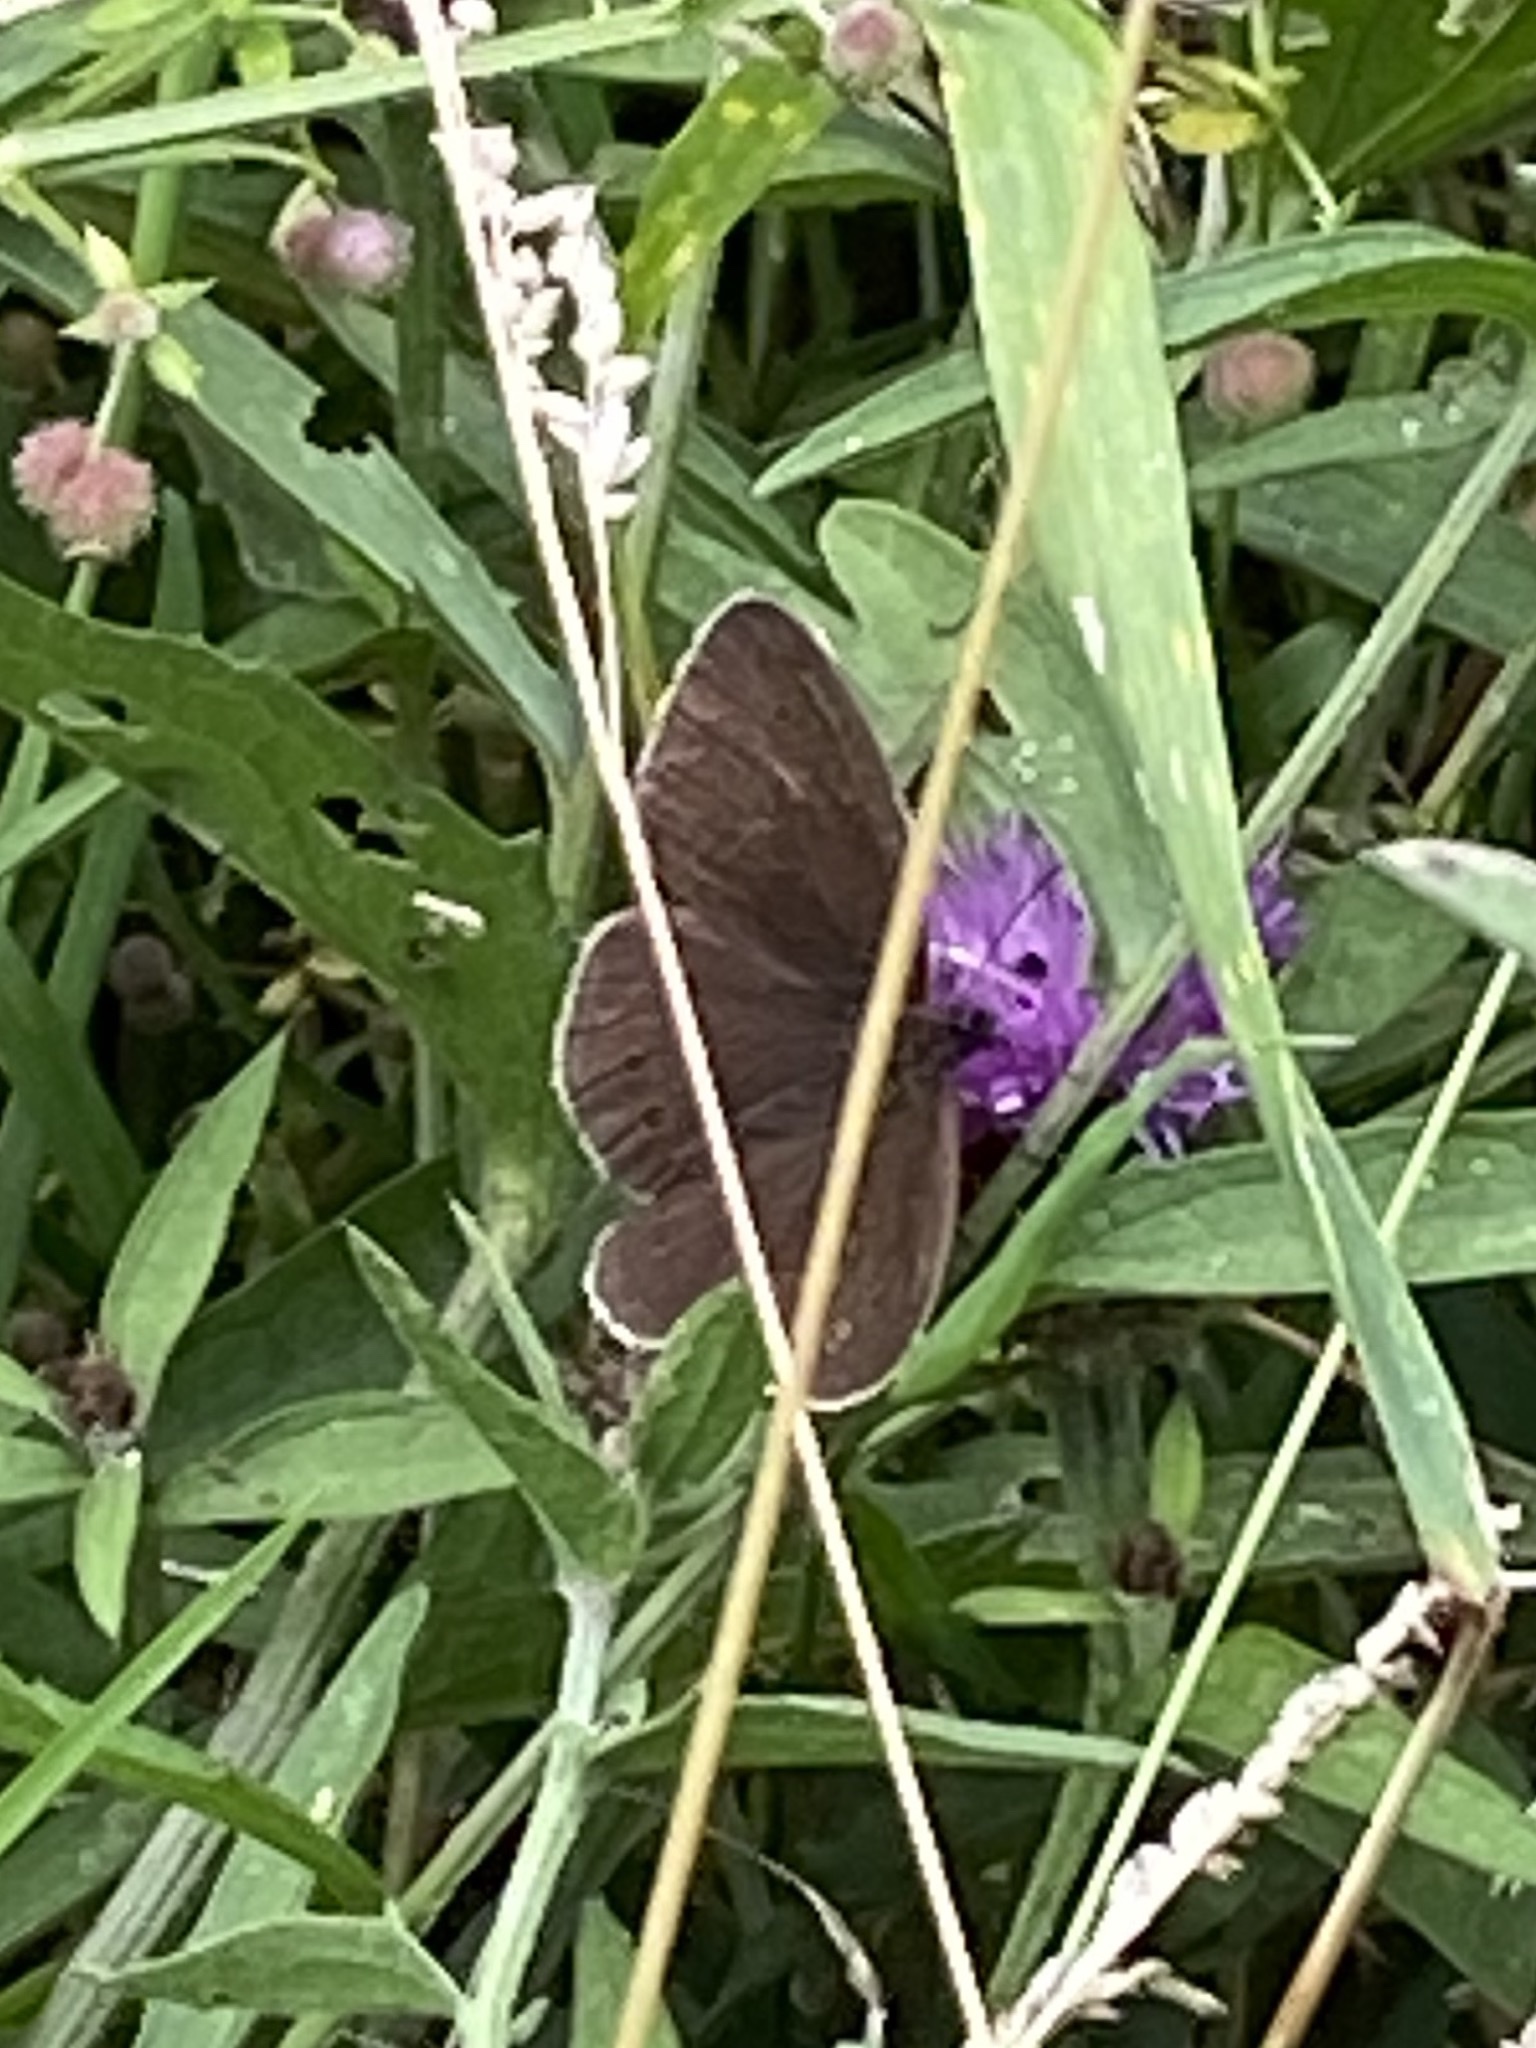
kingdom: Animalia
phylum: Arthropoda
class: Insecta
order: Lepidoptera
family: Nymphalidae
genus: Aphantopus
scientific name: Aphantopus hyperantus
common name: Ringlet
